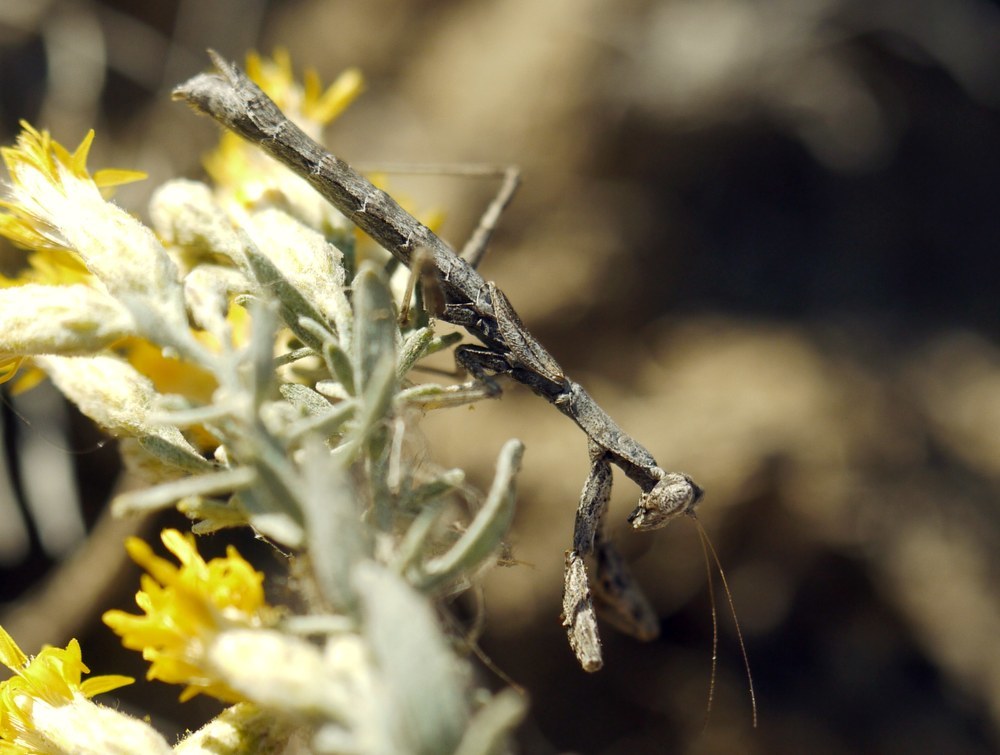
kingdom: Animalia
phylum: Arthropoda
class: Insecta
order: Mantodea
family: Amelidae
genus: Ameles
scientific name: Ameles heldreichi
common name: Heldreich's dwarf mantis
